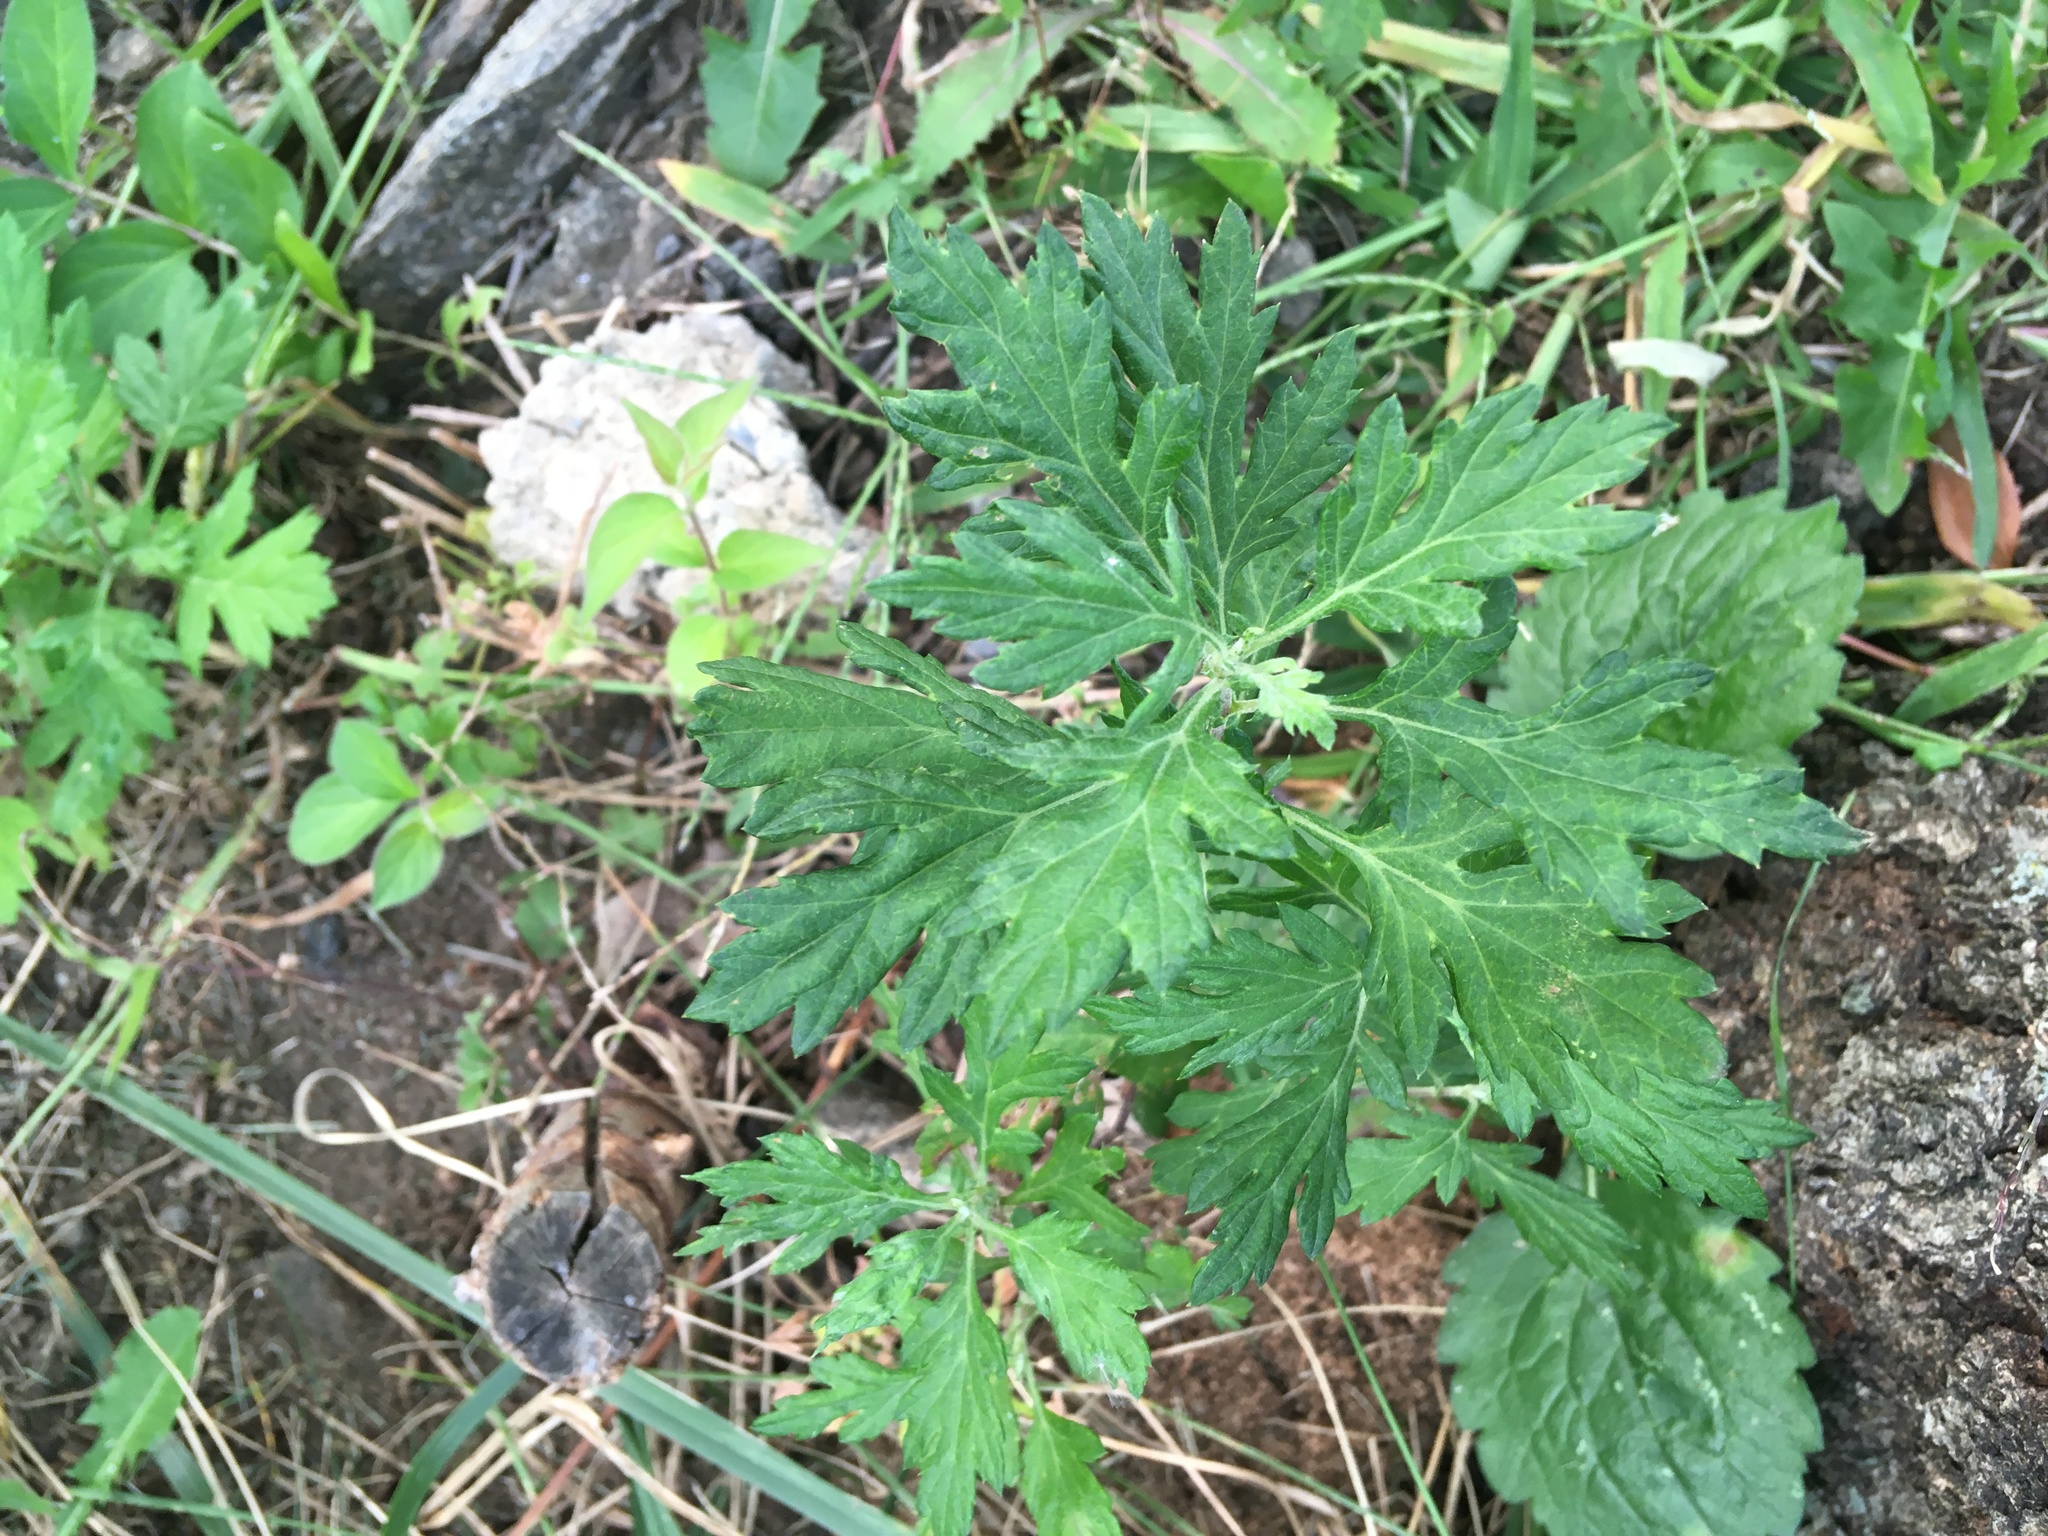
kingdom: Plantae
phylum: Tracheophyta
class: Magnoliopsida
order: Asterales
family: Asteraceae
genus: Artemisia
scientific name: Artemisia vulgaris
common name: Mugwort
